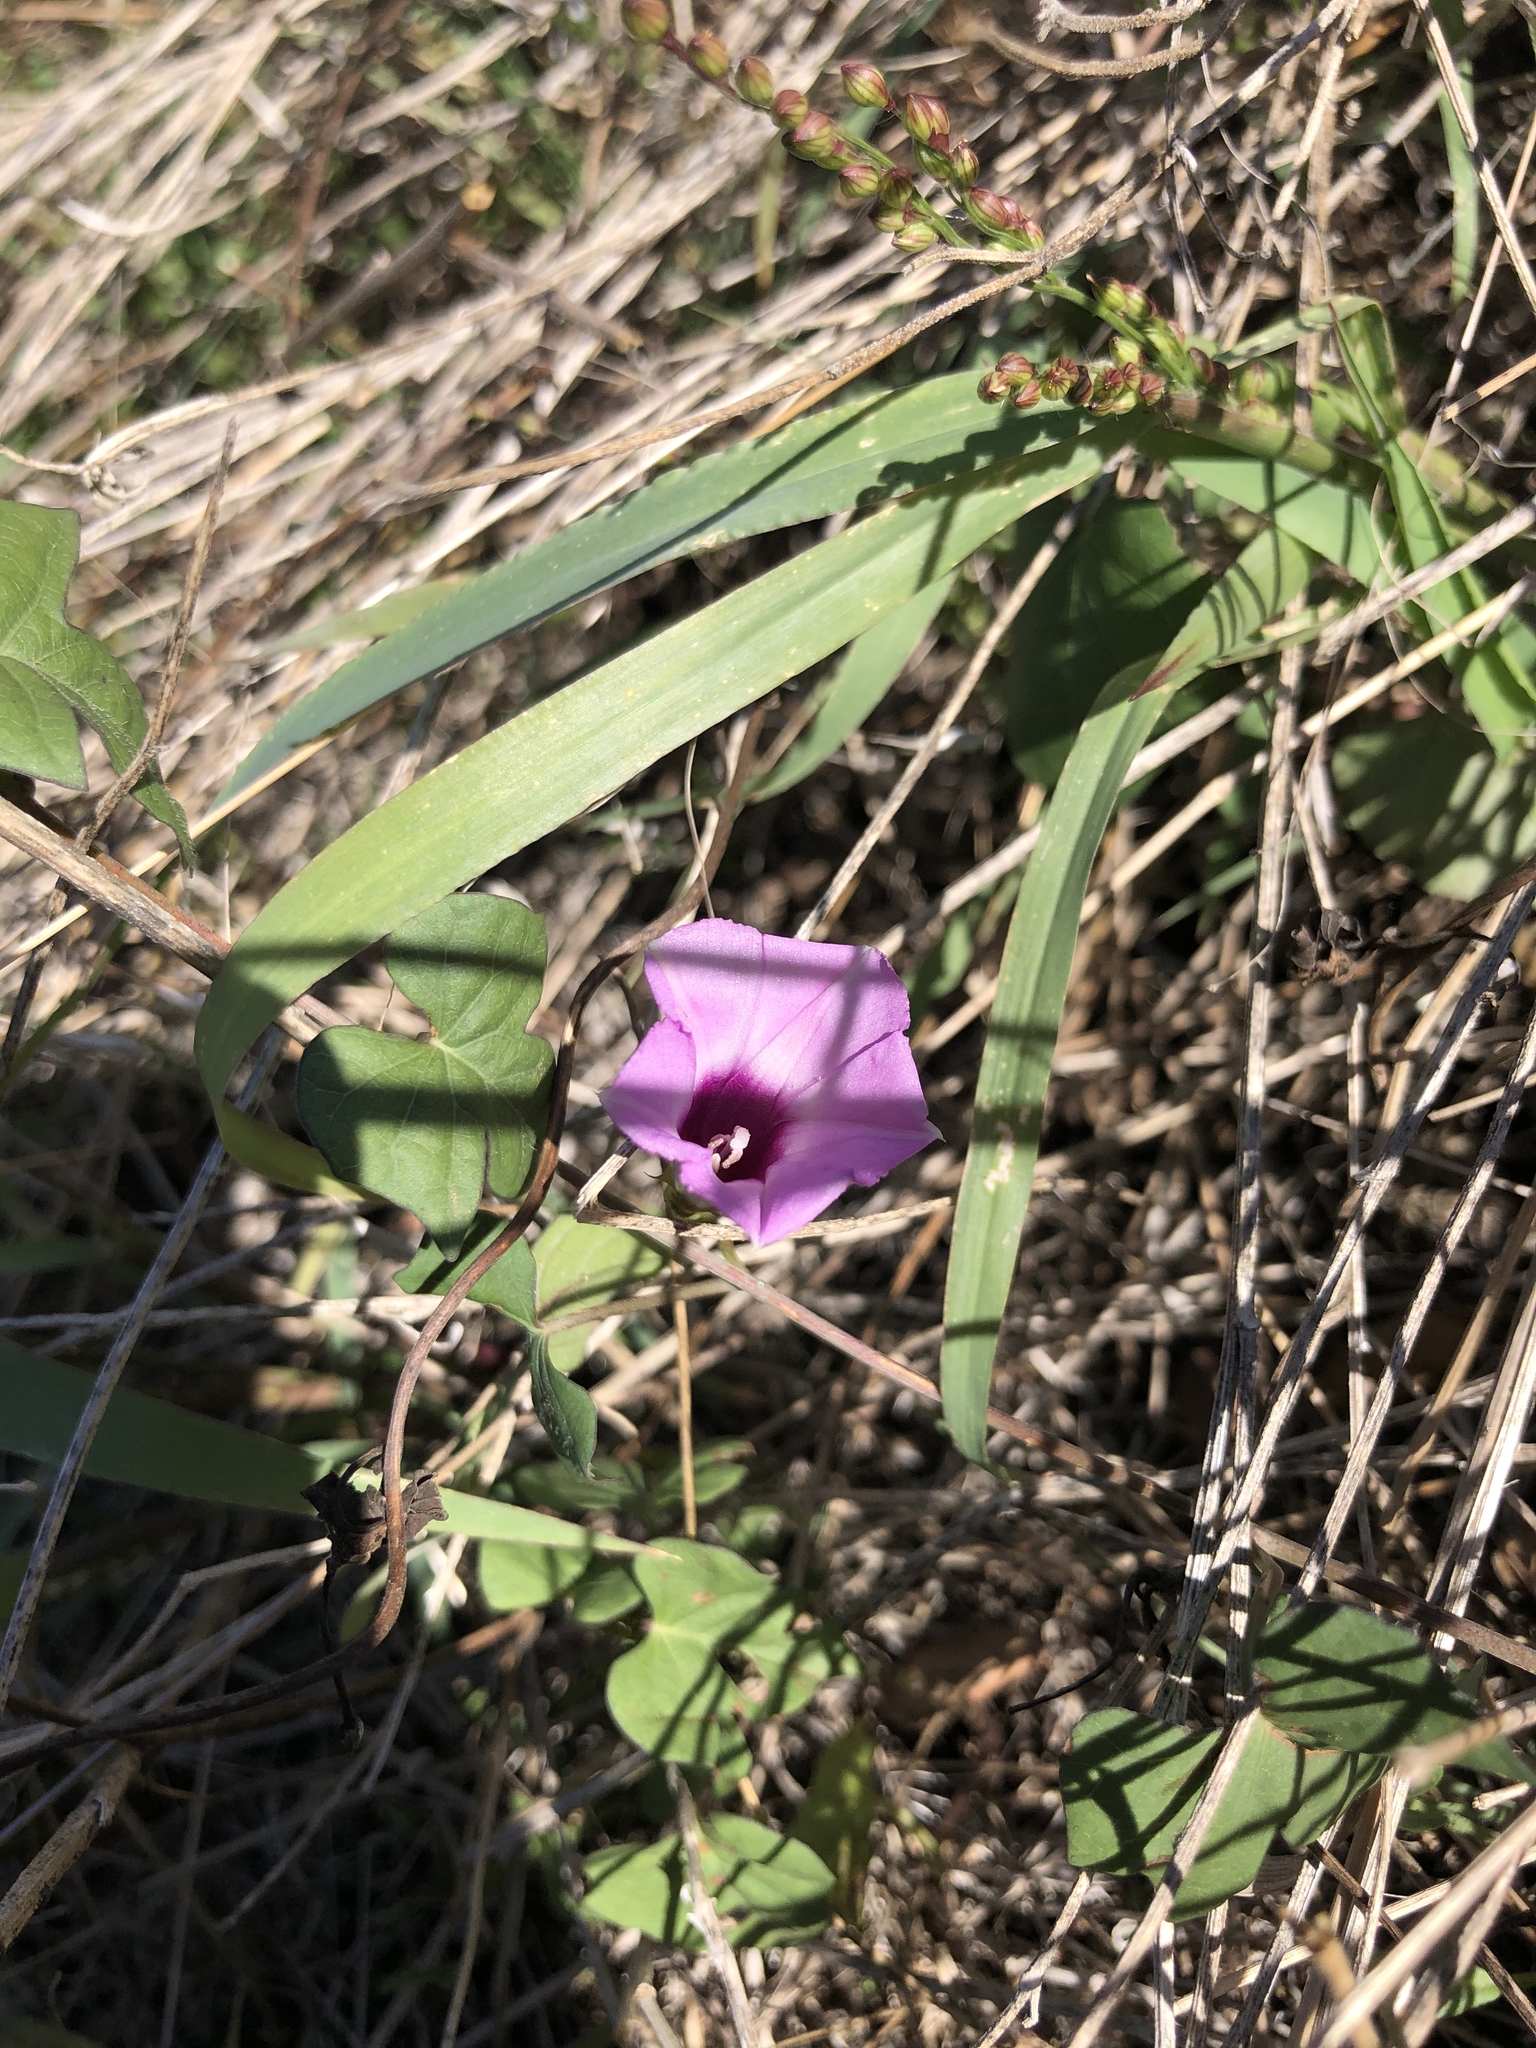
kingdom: Plantae
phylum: Tracheophyta
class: Magnoliopsida
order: Solanales
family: Convolvulaceae
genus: Ipomoea
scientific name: Ipomoea cordatotriloba
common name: Cotton morning glory
